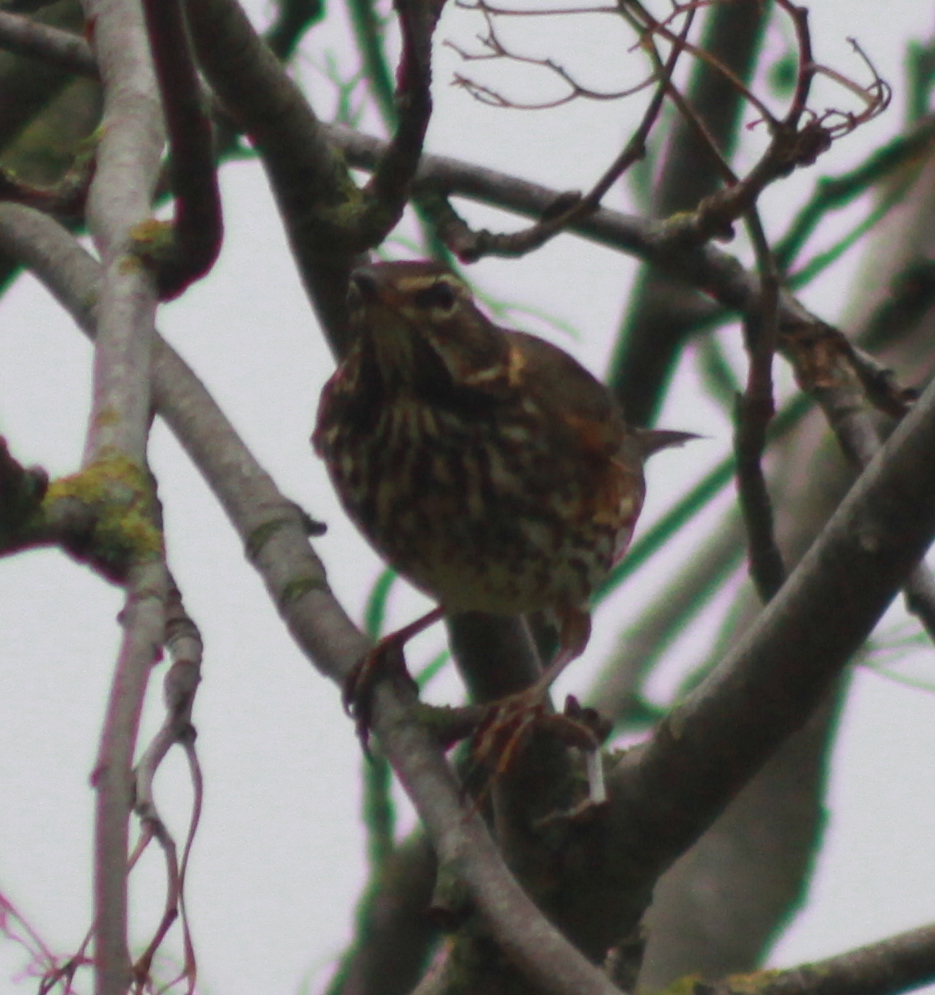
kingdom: Animalia
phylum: Chordata
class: Aves
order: Passeriformes
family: Turdidae
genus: Turdus
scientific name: Turdus iliacus
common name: Redwing
